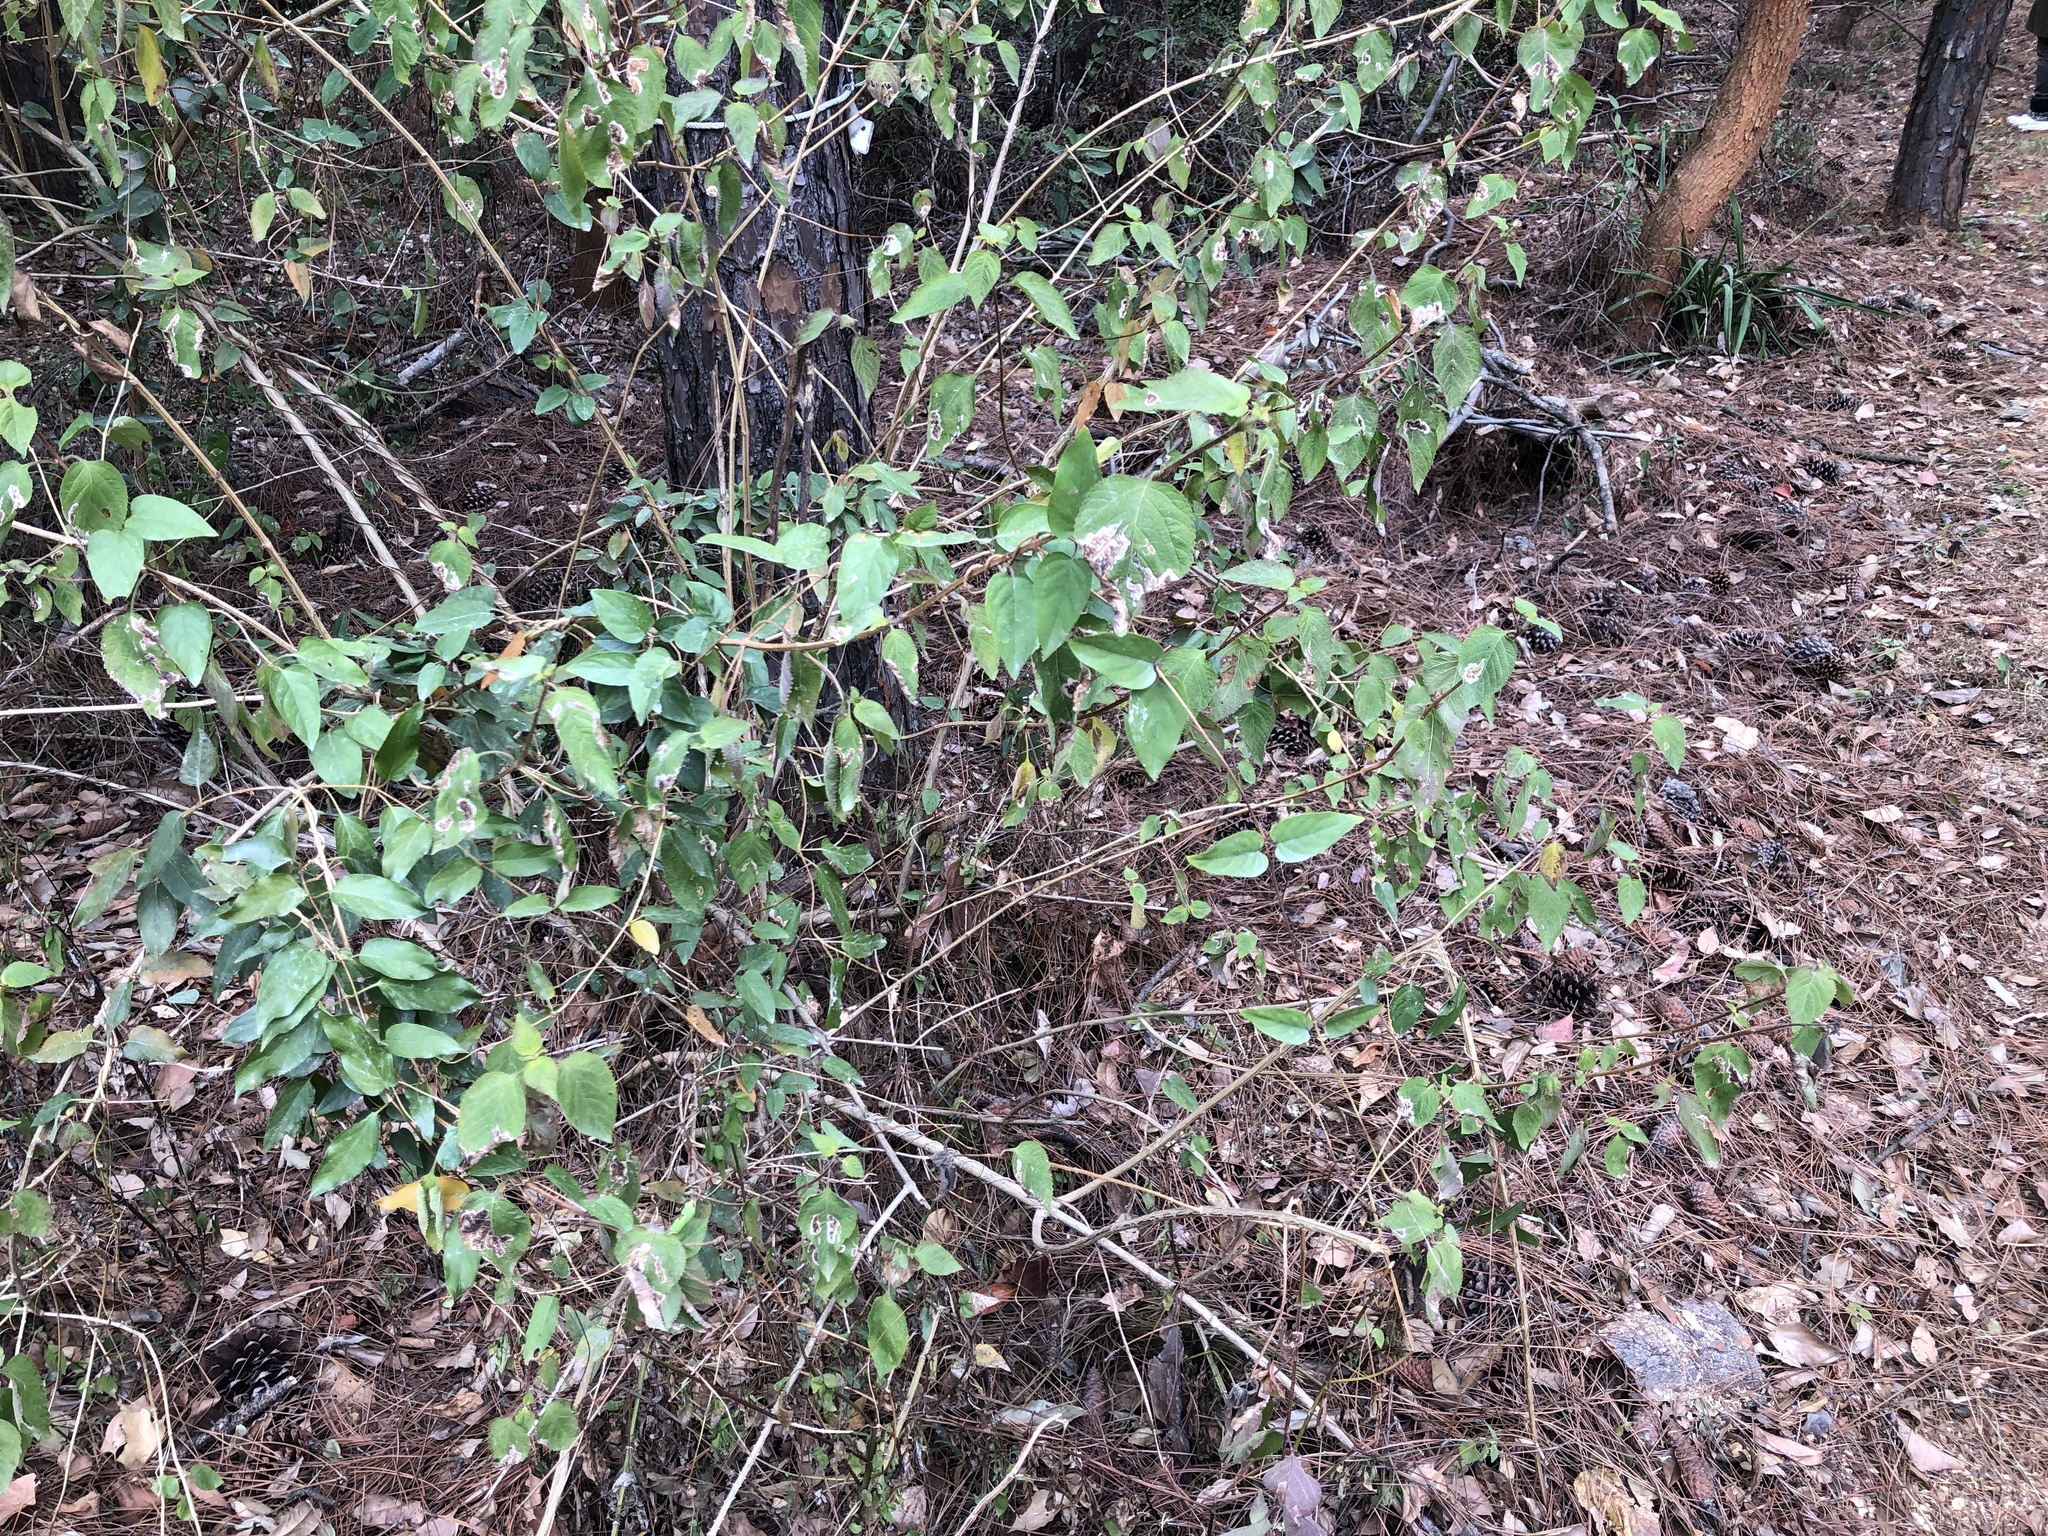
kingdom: Plantae
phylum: Tracheophyta
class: Magnoliopsida
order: Lamiales
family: Verbenaceae
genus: Lantana
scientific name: Lantana camara
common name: Lantana
